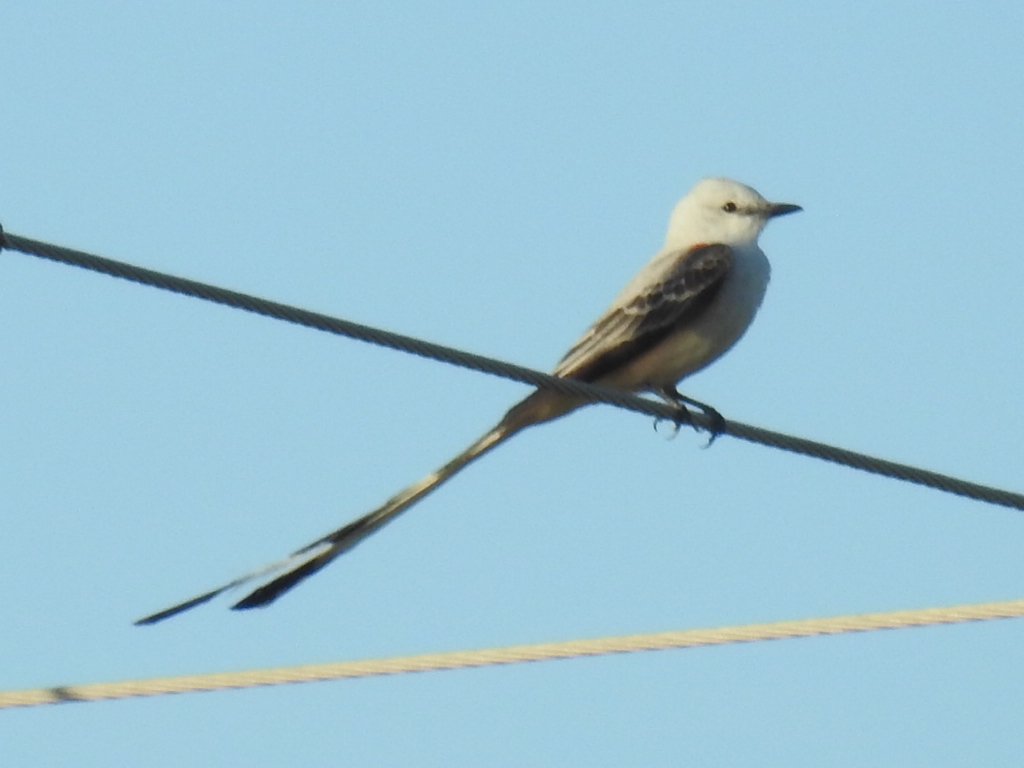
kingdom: Animalia
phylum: Chordata
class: Aves
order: Passeriformes
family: Tyrannidae
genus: Tyrannus
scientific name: Tyrannus forficatus
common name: Scissor-tailed flycatcher
